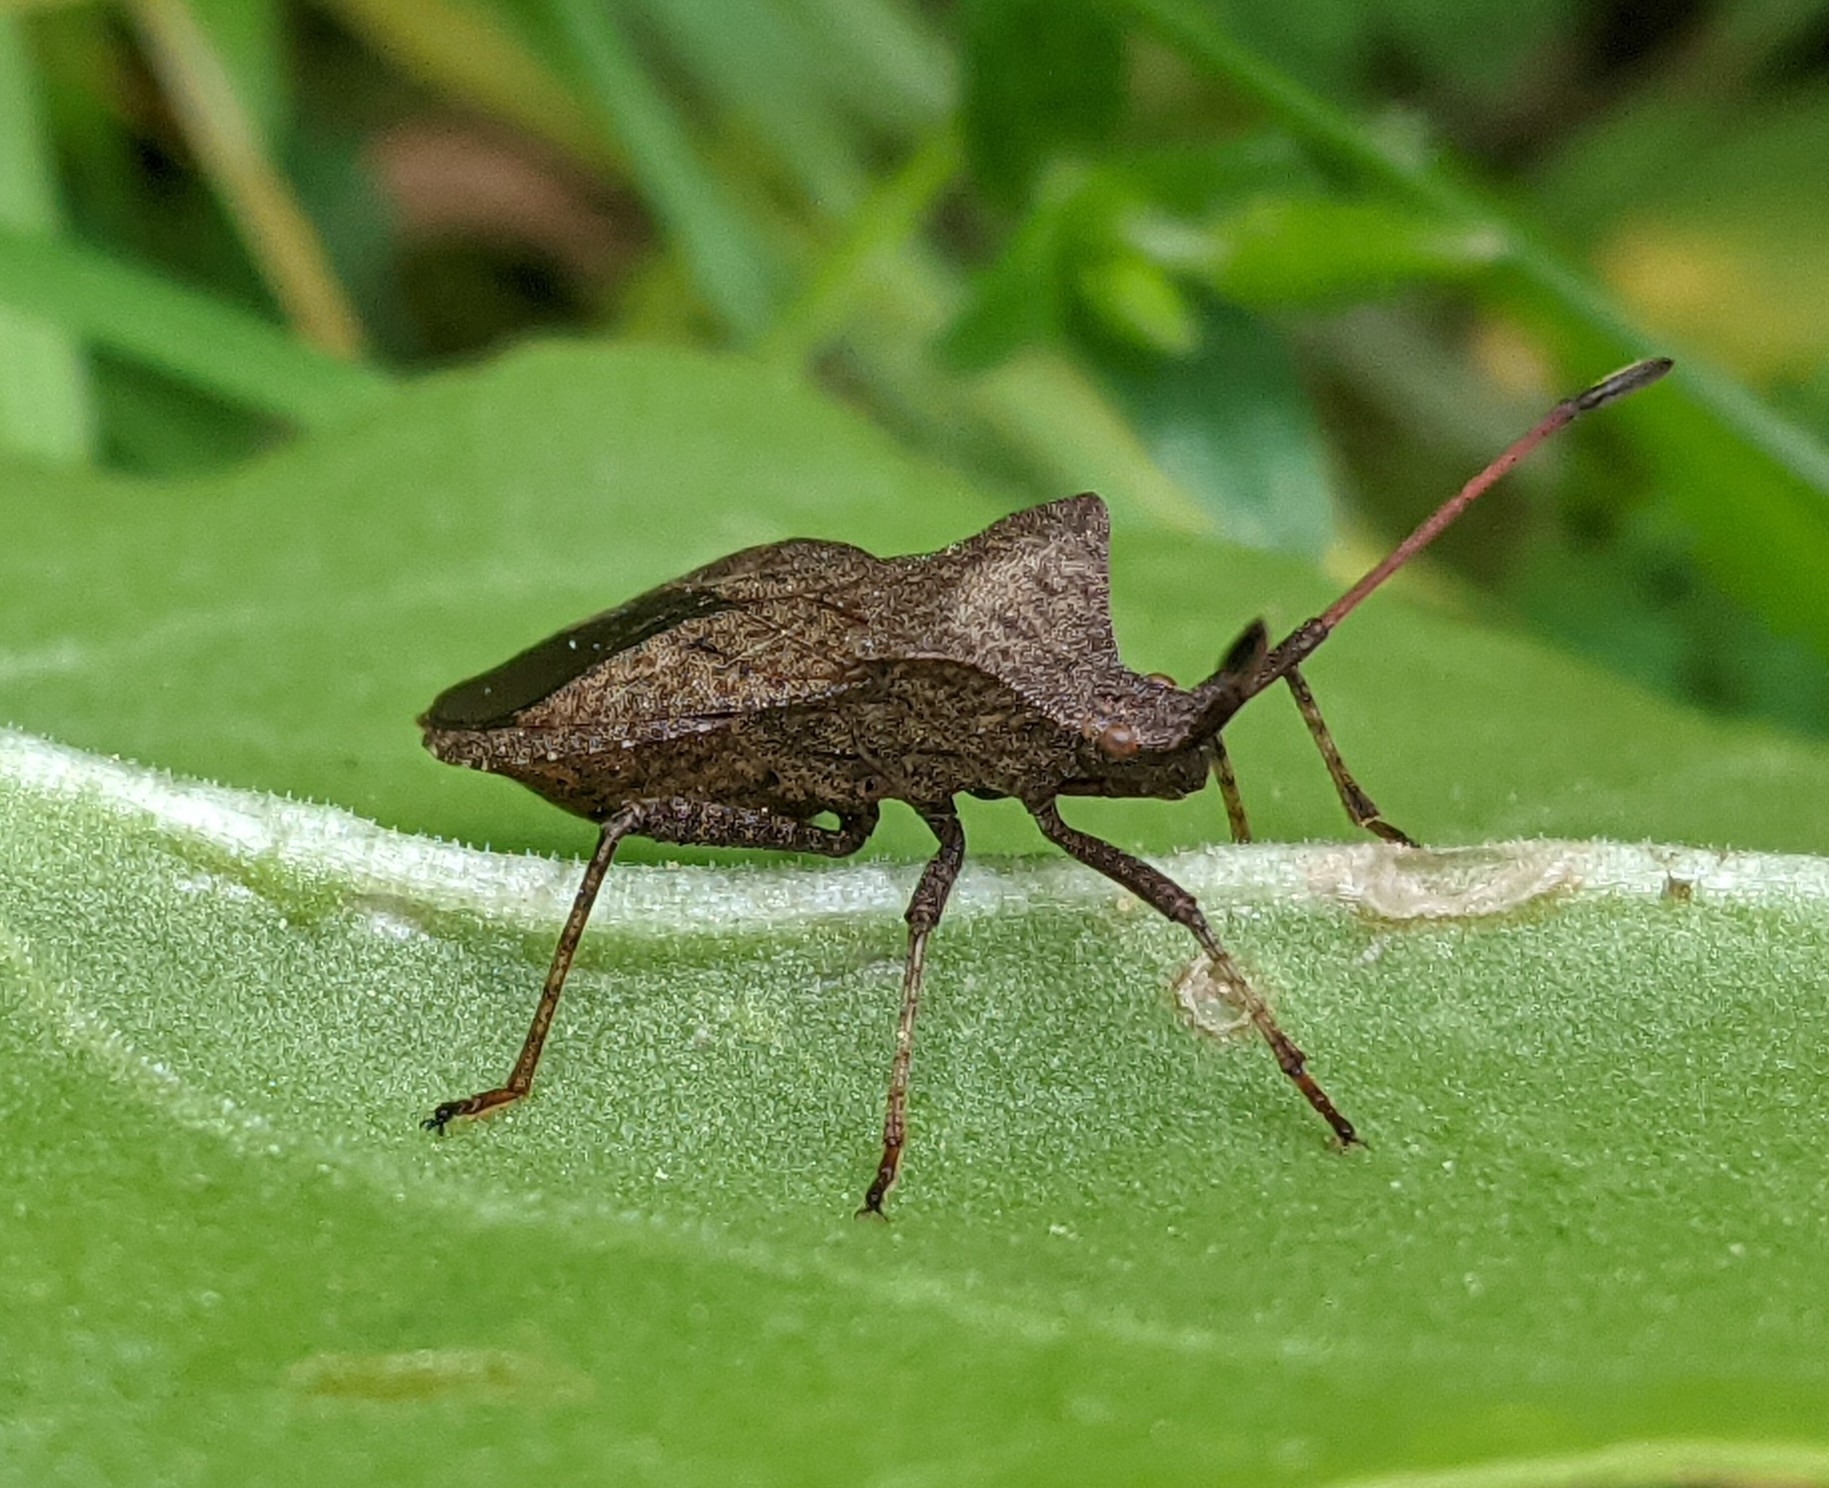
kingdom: Animalia
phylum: Arthropoda
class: Insecta
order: Hemiptera
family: Coreidae
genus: Coreus
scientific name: Coreus marginatus
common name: Dock bug
